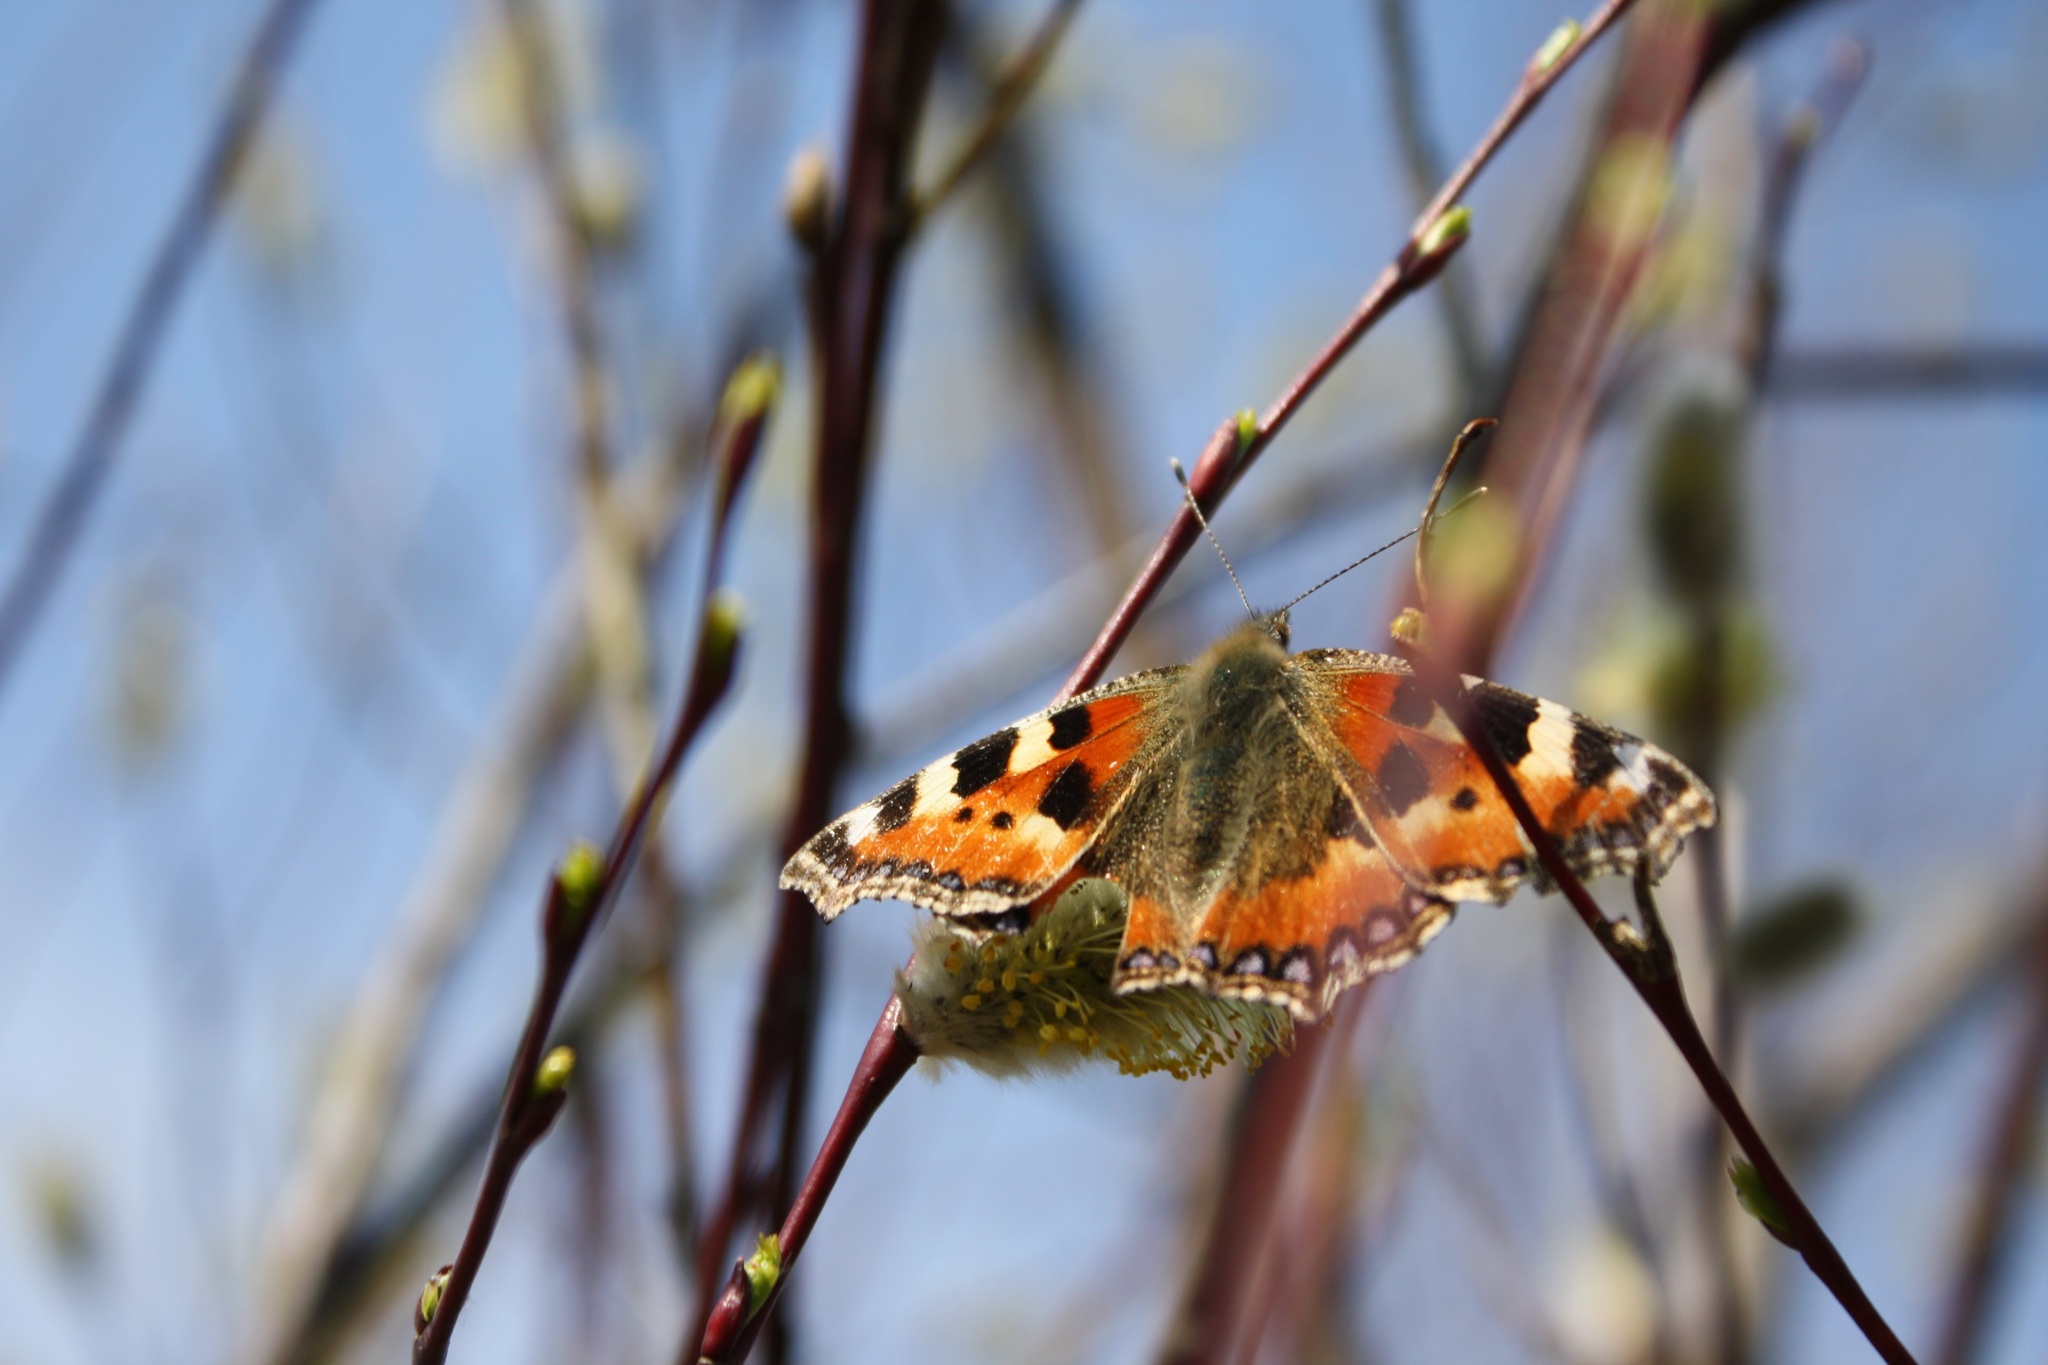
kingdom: Animalia
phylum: Arthropoda
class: Insecta
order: Lepidoptera
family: Nymphalidae
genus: Aglais
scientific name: Aglais urticae
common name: Small tortoiseshell
